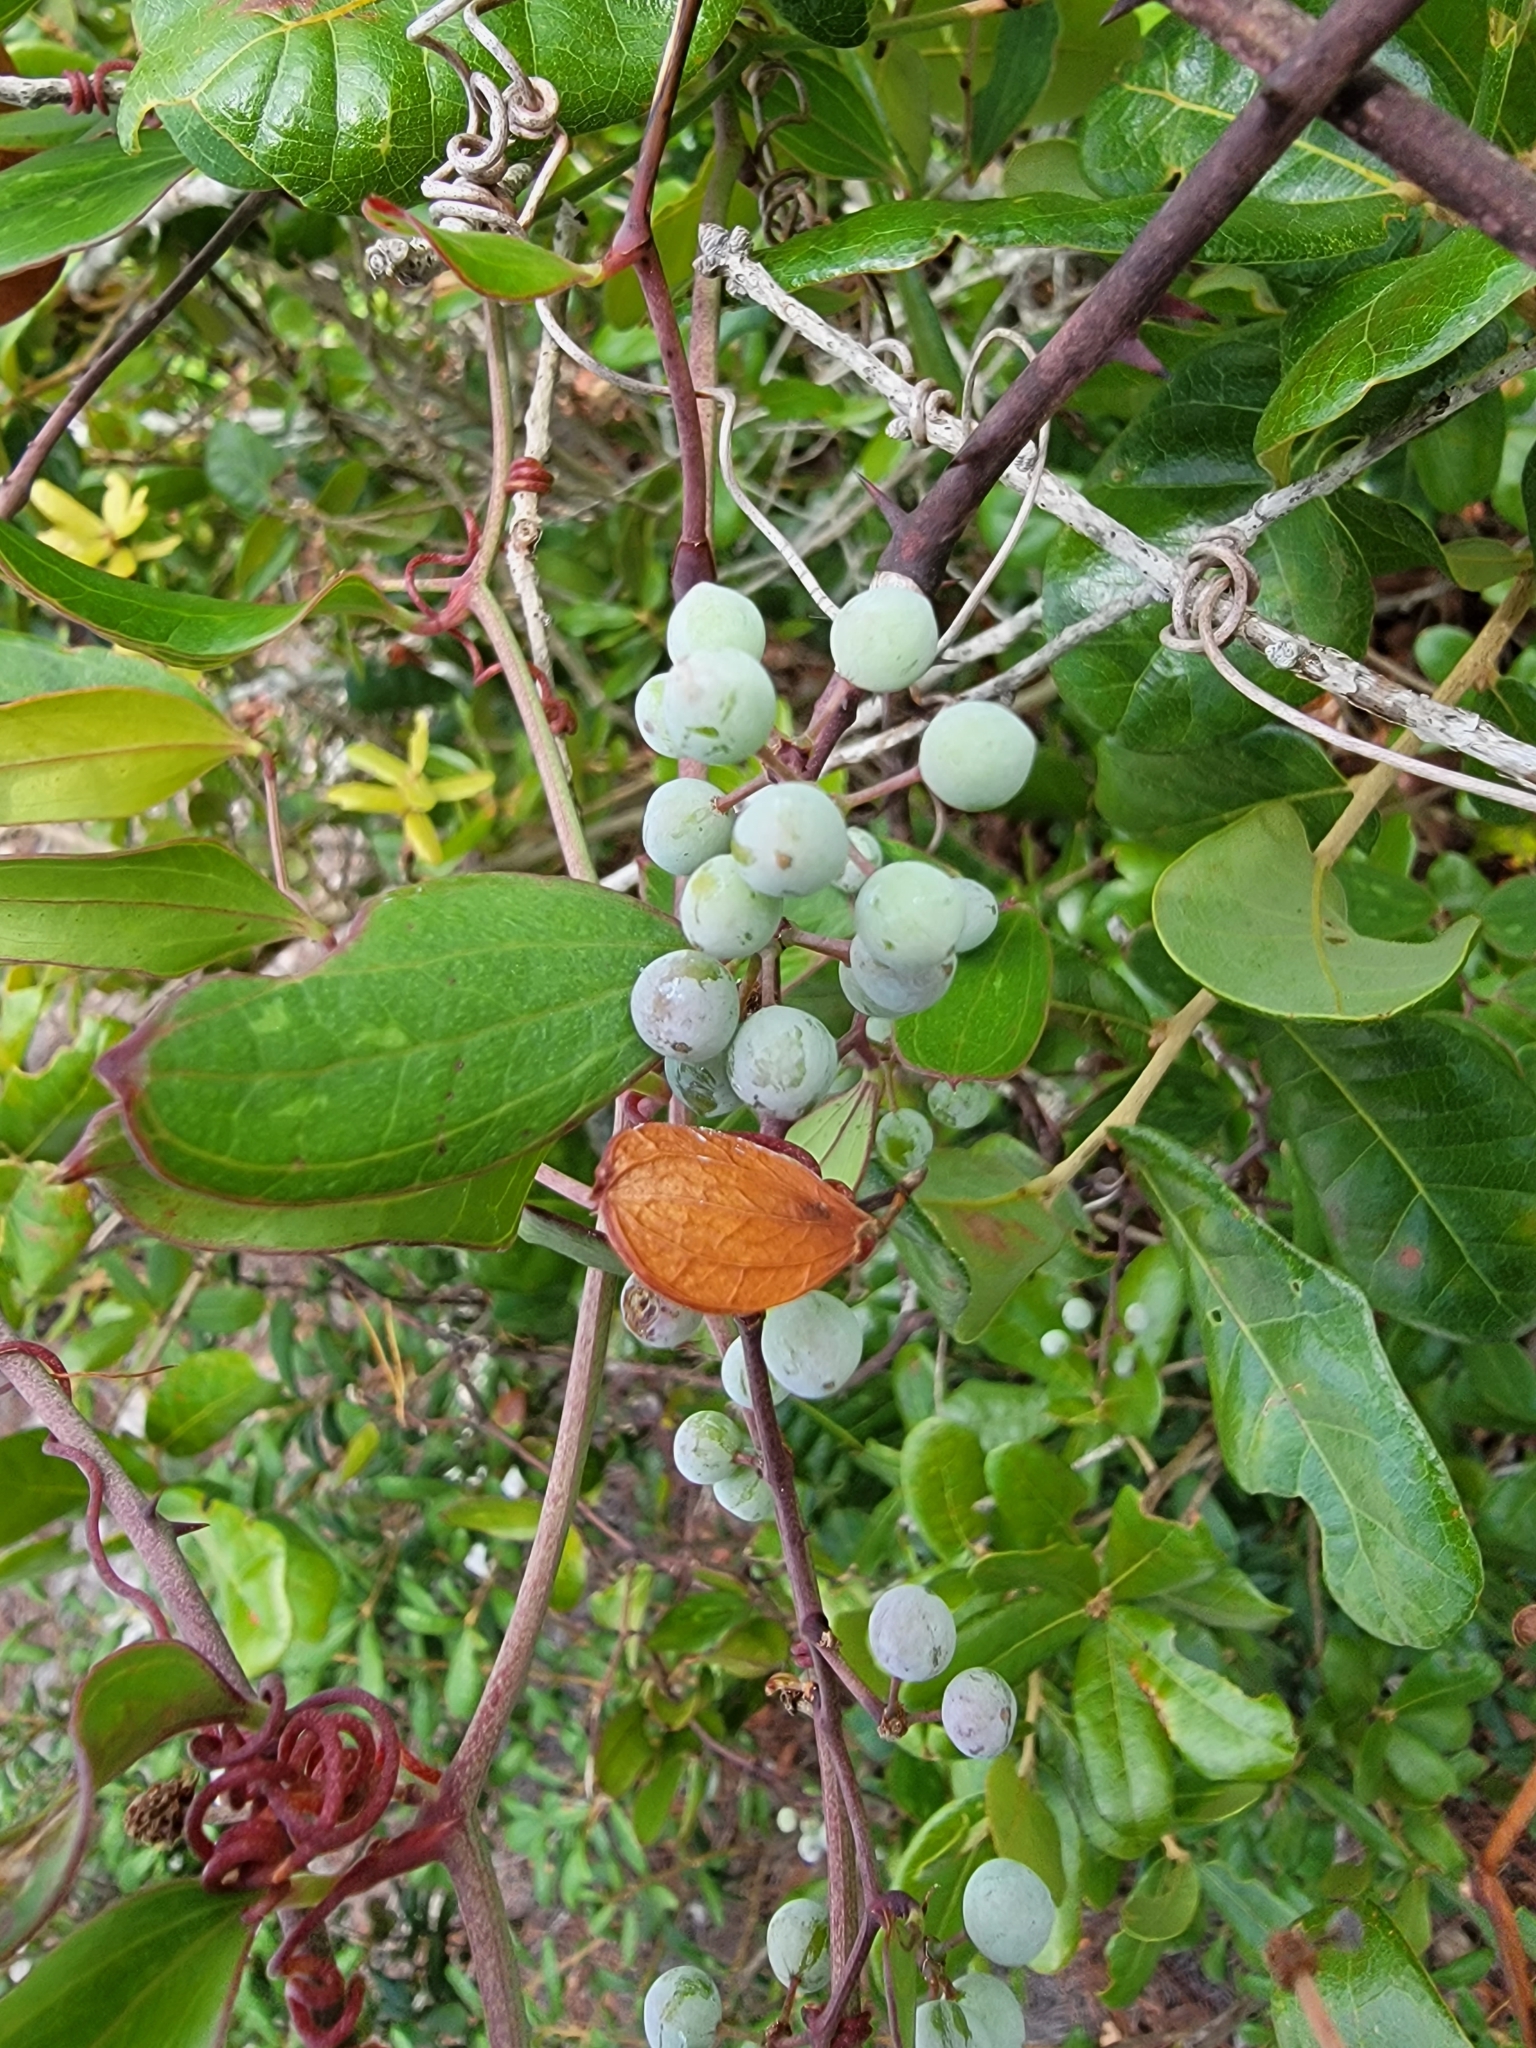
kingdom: Plantae
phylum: Tracheophyta
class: Liliopsida
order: Liliales
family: Smilacaceae
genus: Smilax
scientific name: Smilax auriculata
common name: Wild bamboo
